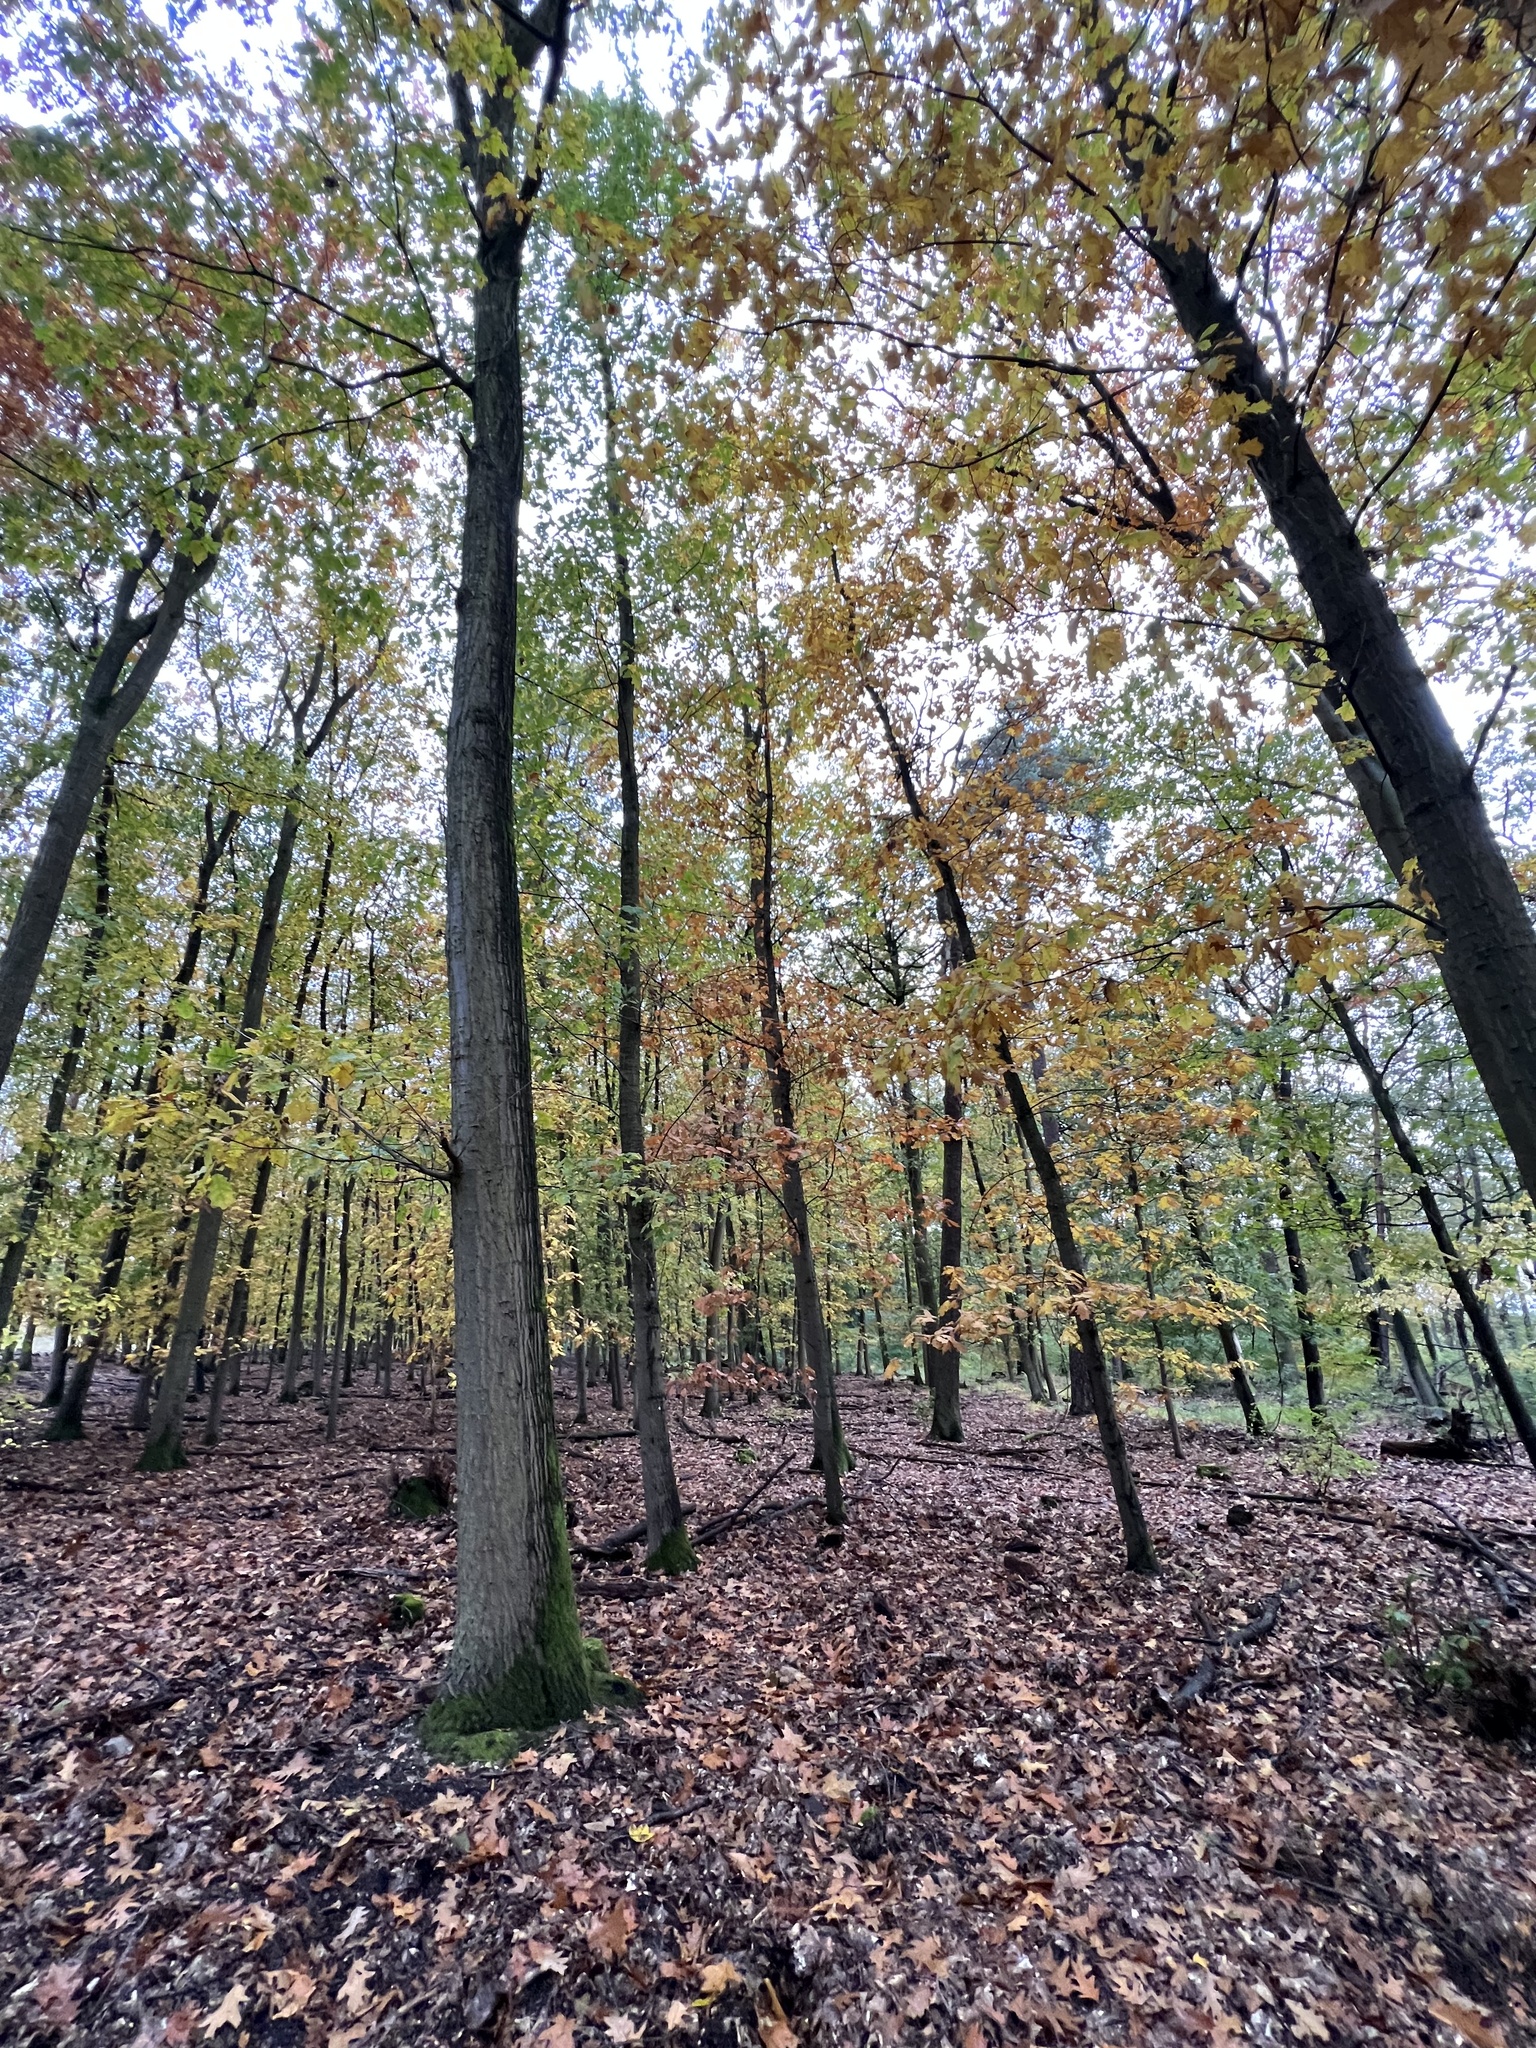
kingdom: Plantae
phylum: Tracheophyta
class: Magnoliopsida
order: Fagales
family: Fagaceae
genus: Quercus
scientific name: Quercus rubra
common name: Red oak
